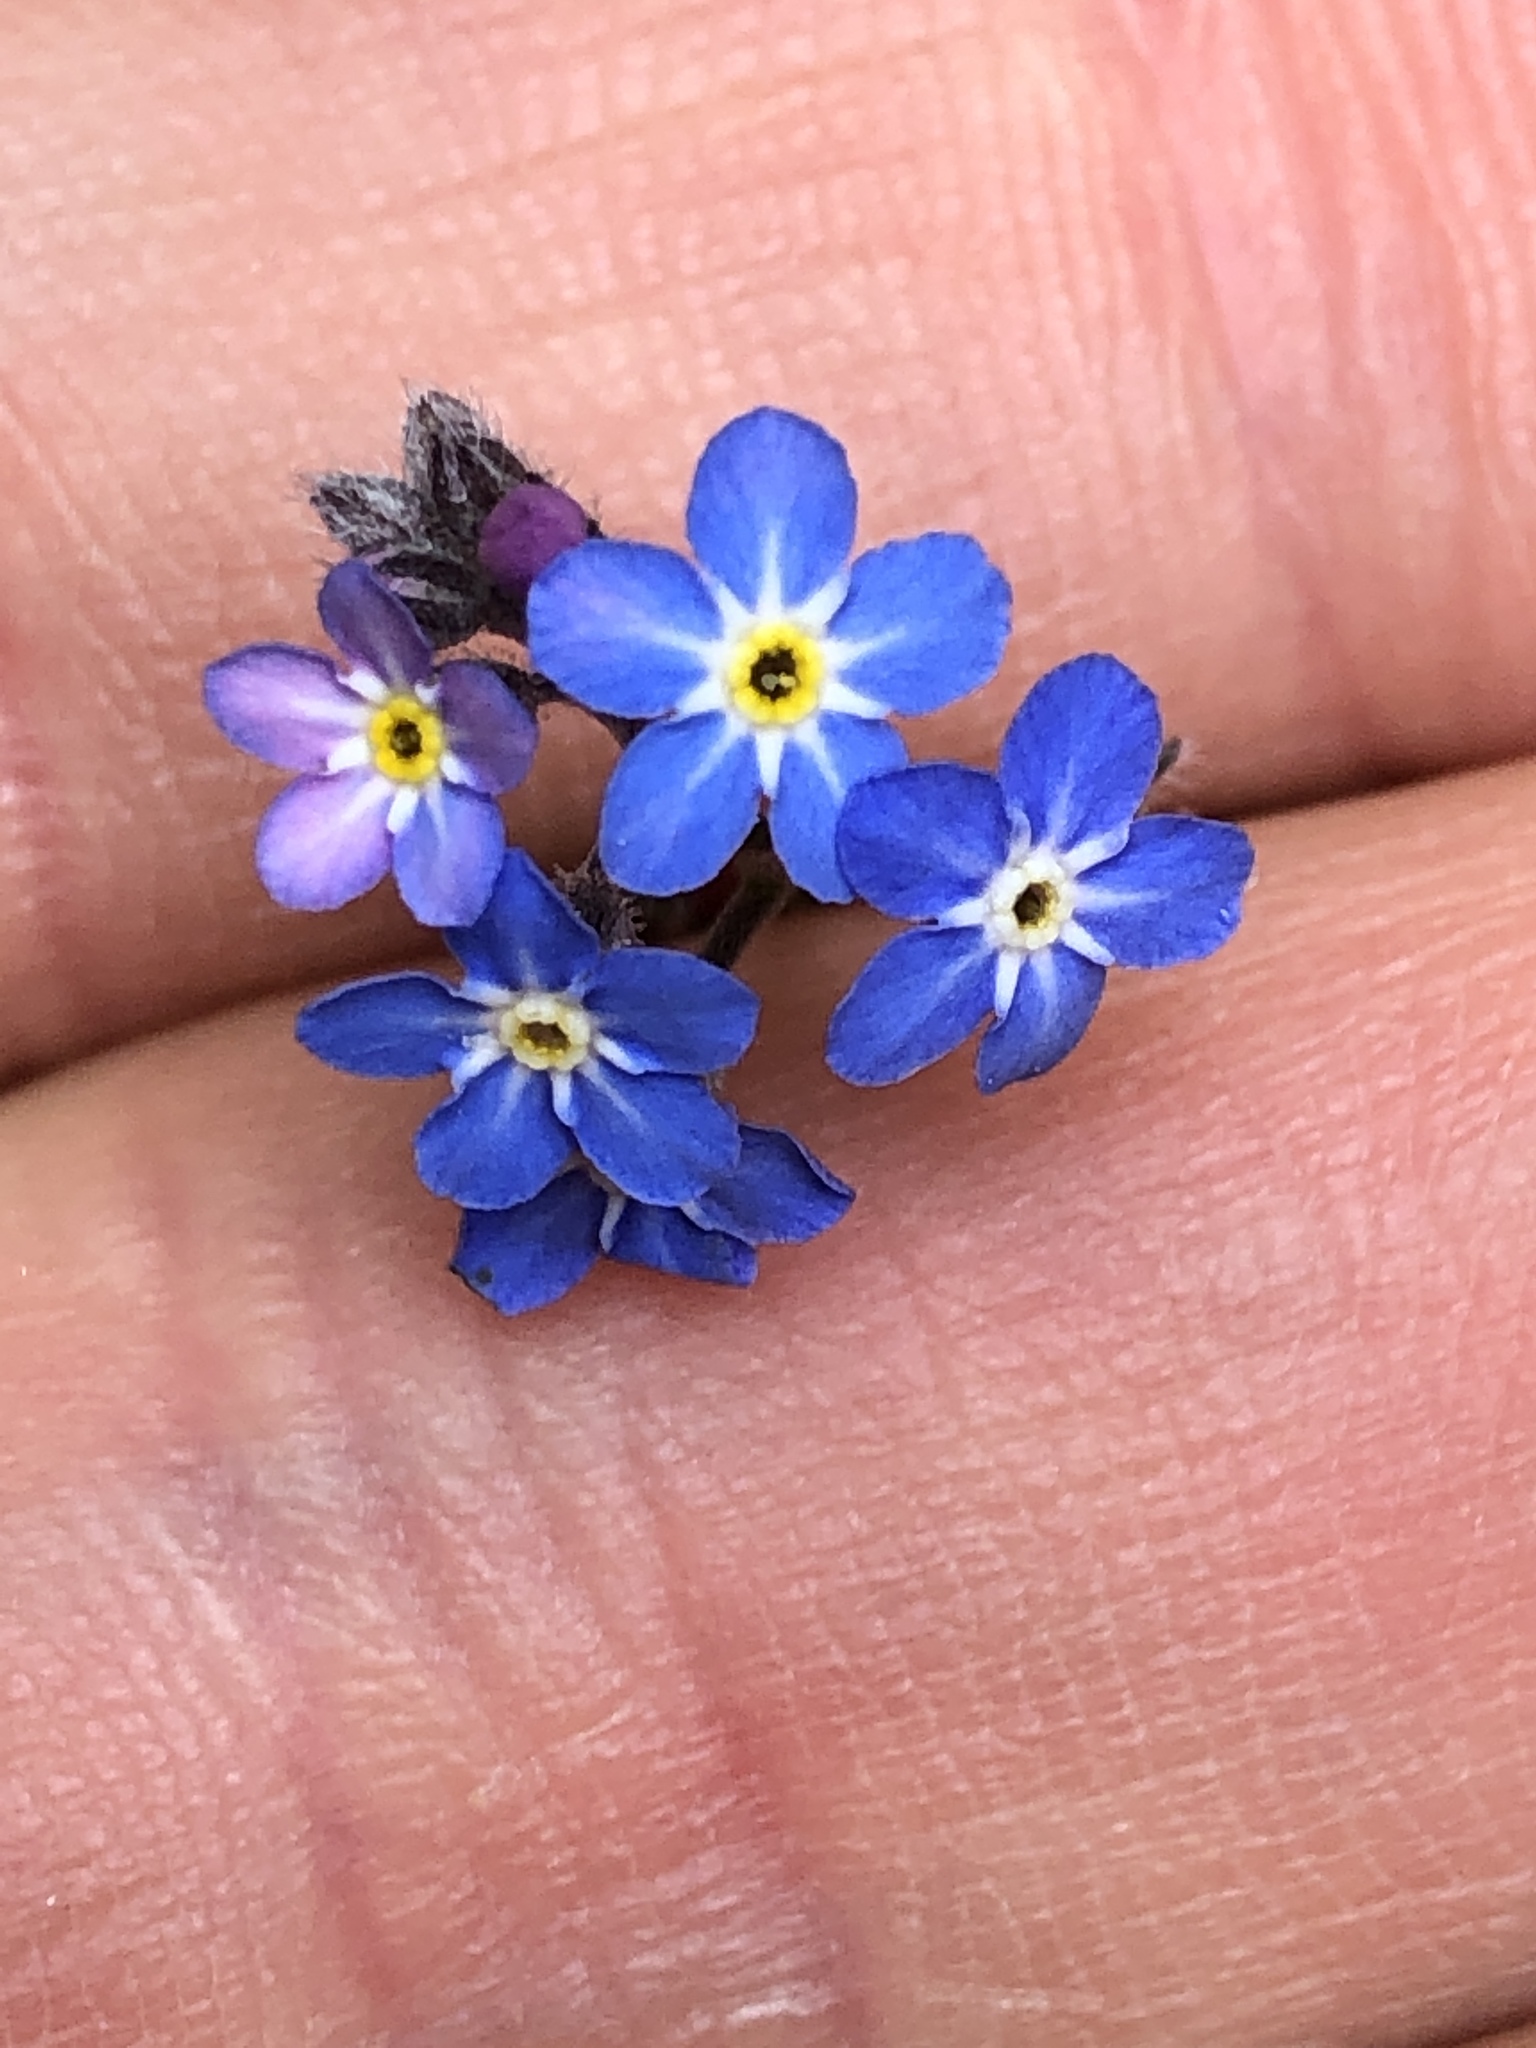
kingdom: Plantae
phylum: Tracheophyta
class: Magnoliopsida
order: Boraginales
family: Boraginaceae
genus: Myosotis
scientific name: Myosotis sylvatica
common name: Wood forget-me-not
